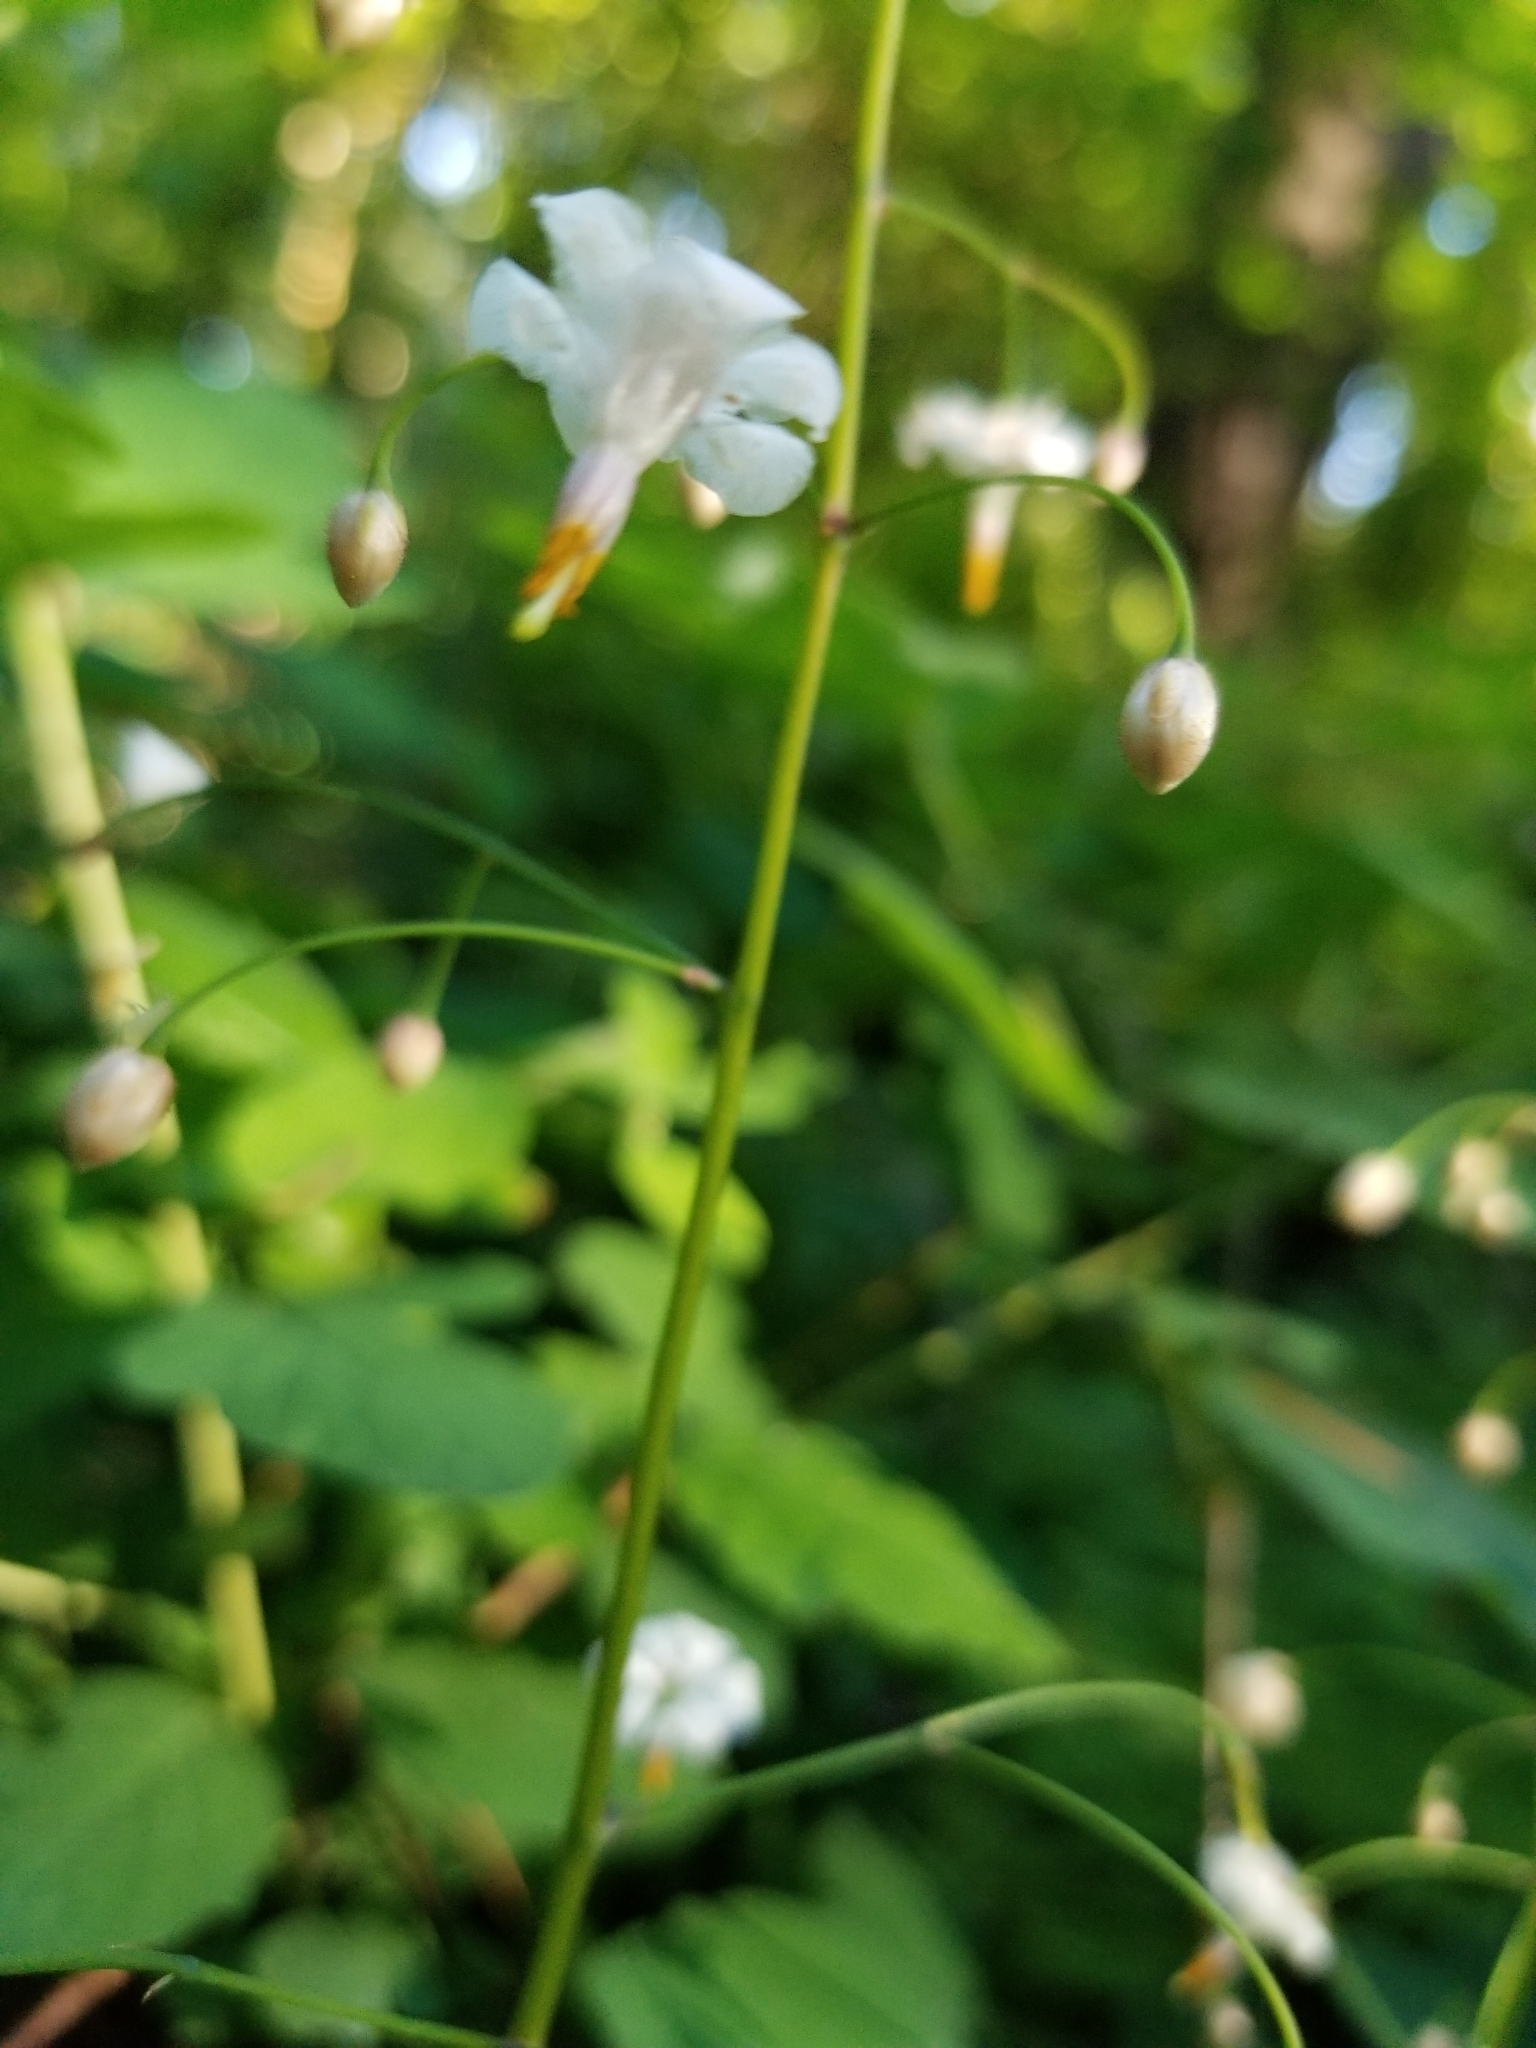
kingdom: Plantae
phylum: Tracheophyta
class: Magnoliopsida
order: Ranunculales
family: Berberidaceae
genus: Vancouveria
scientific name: Vancouveria hexandra
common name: Northern inside-out-flower
